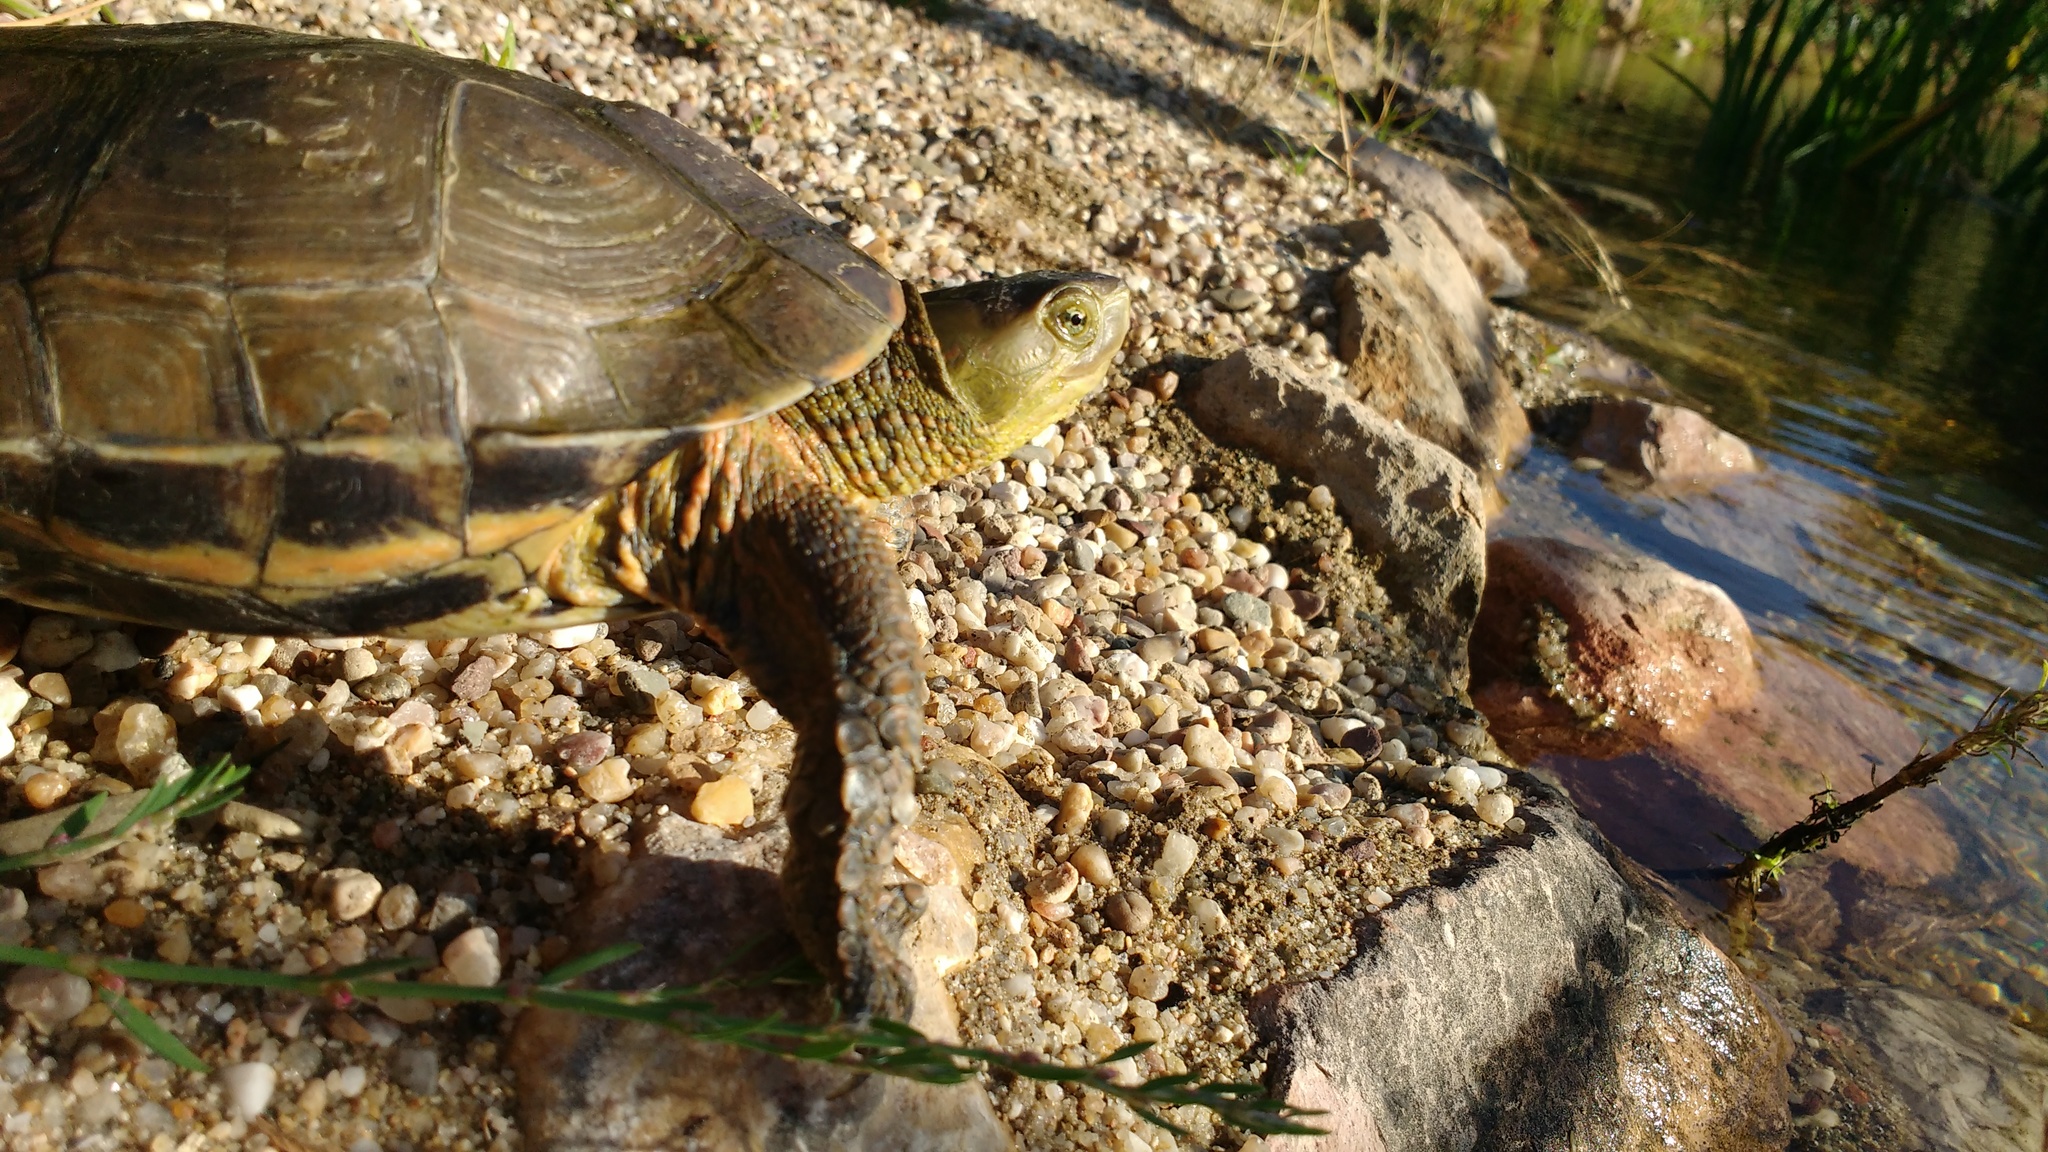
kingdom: Animalia
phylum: Chordata
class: Testudines
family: Geoemydidae
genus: Mauremys
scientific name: Mauremys leprosa
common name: Mediterranean pond turtle
